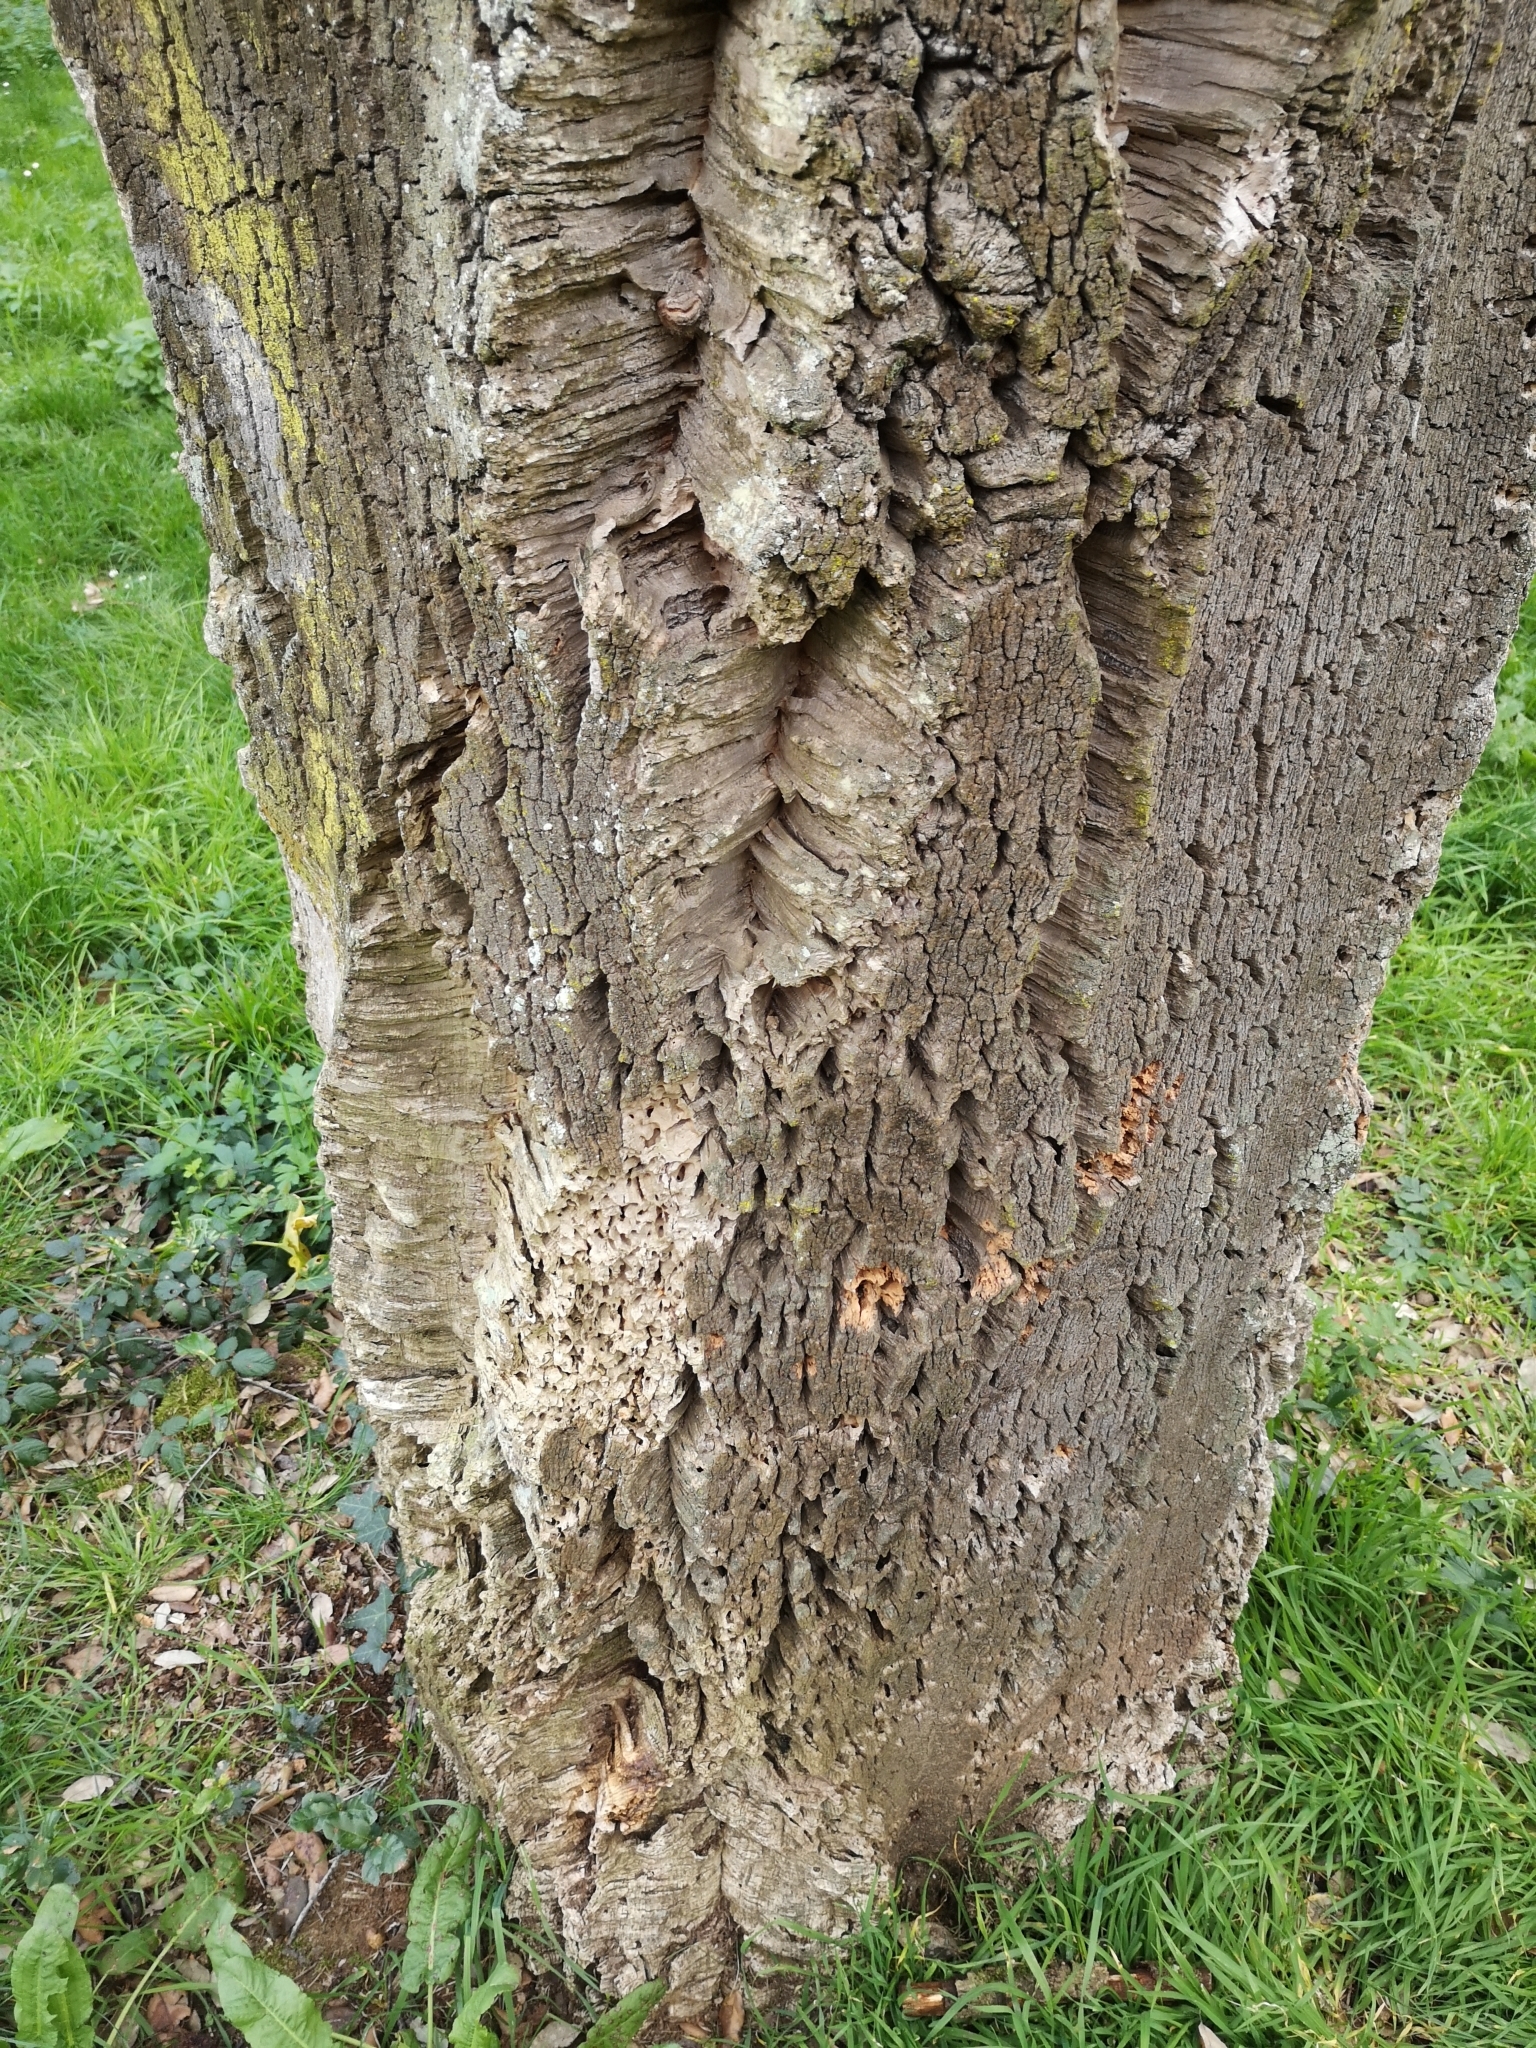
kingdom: Plantae
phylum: Tracheophyta
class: Magnoliopsida
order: Fagales
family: Fagaceae
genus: Quercus
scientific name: Quercus suber
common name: Cork oak
